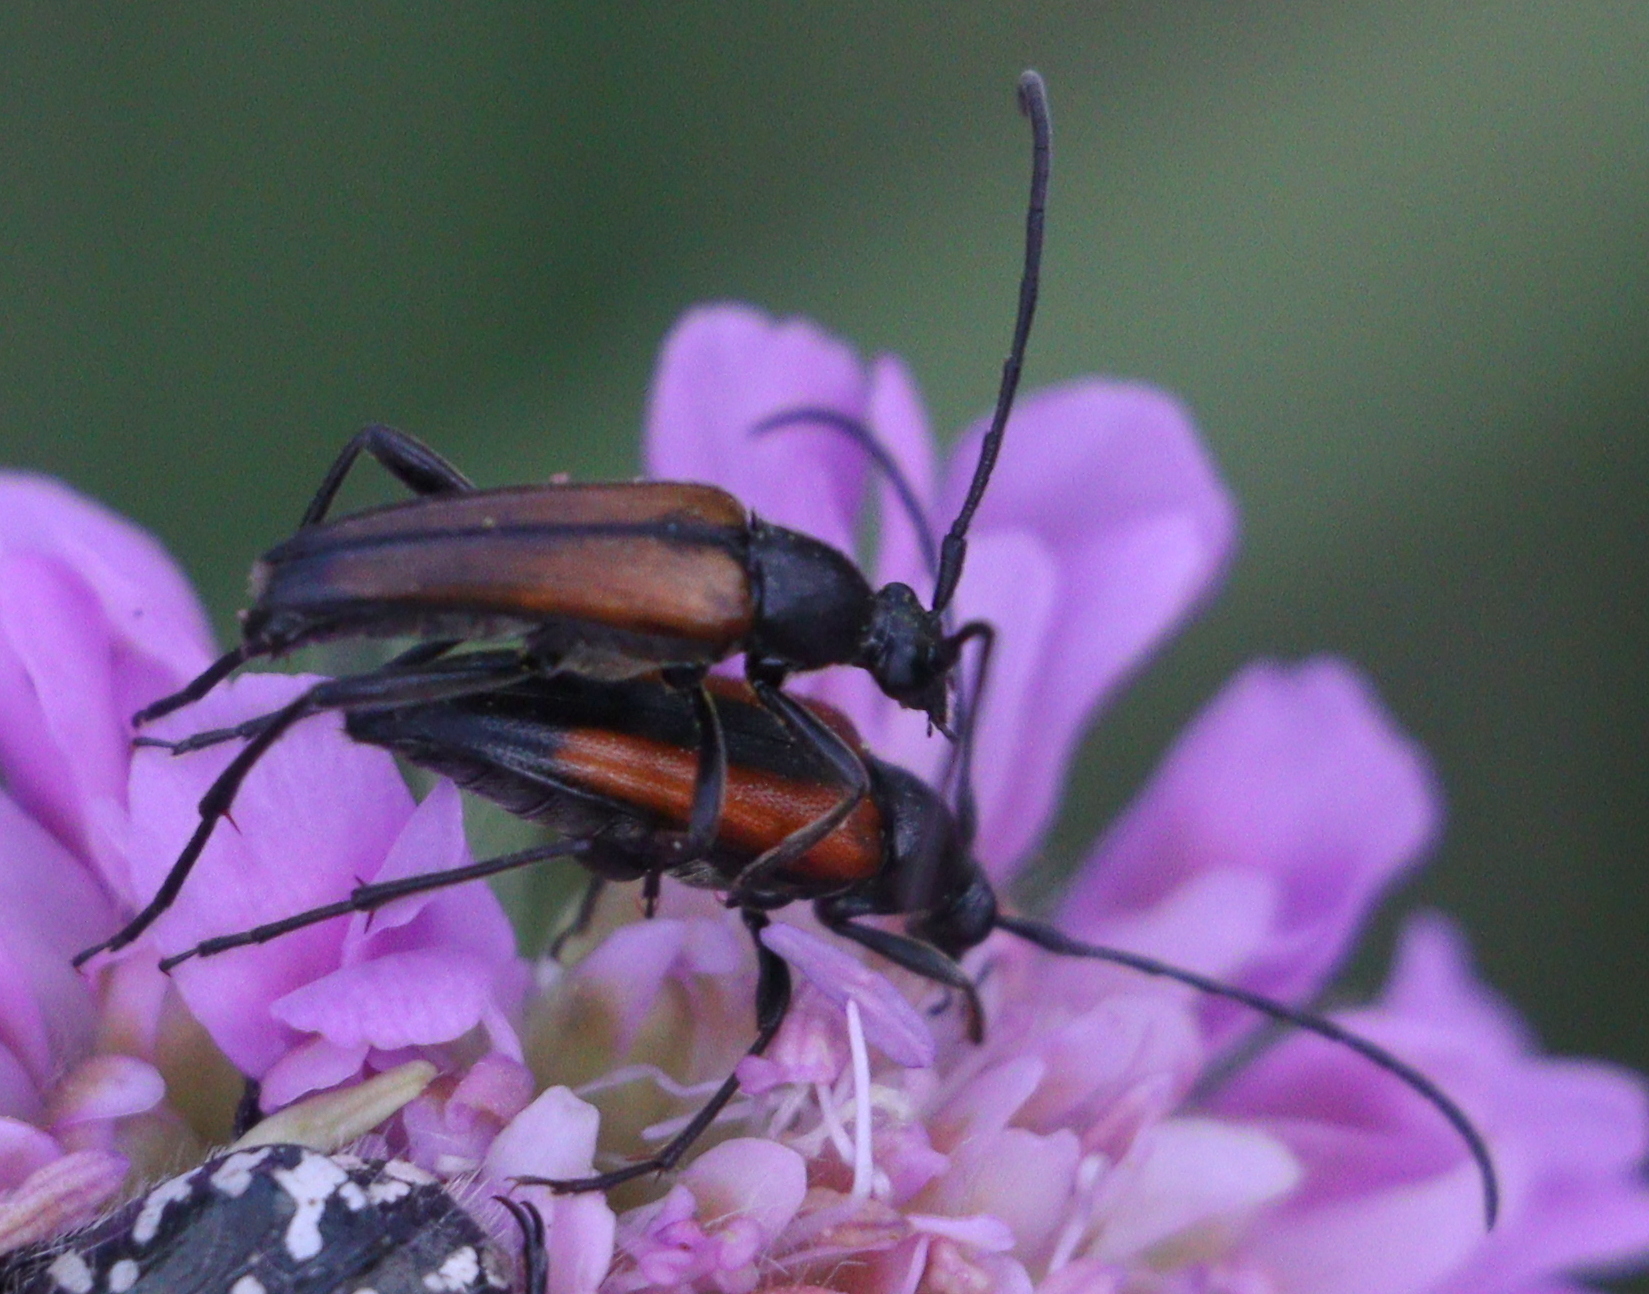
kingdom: Animalia
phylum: Arthropoda
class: Insecta
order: Coleoptera
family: Cerambycidae
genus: Stenurella
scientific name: Stenurella melanura
